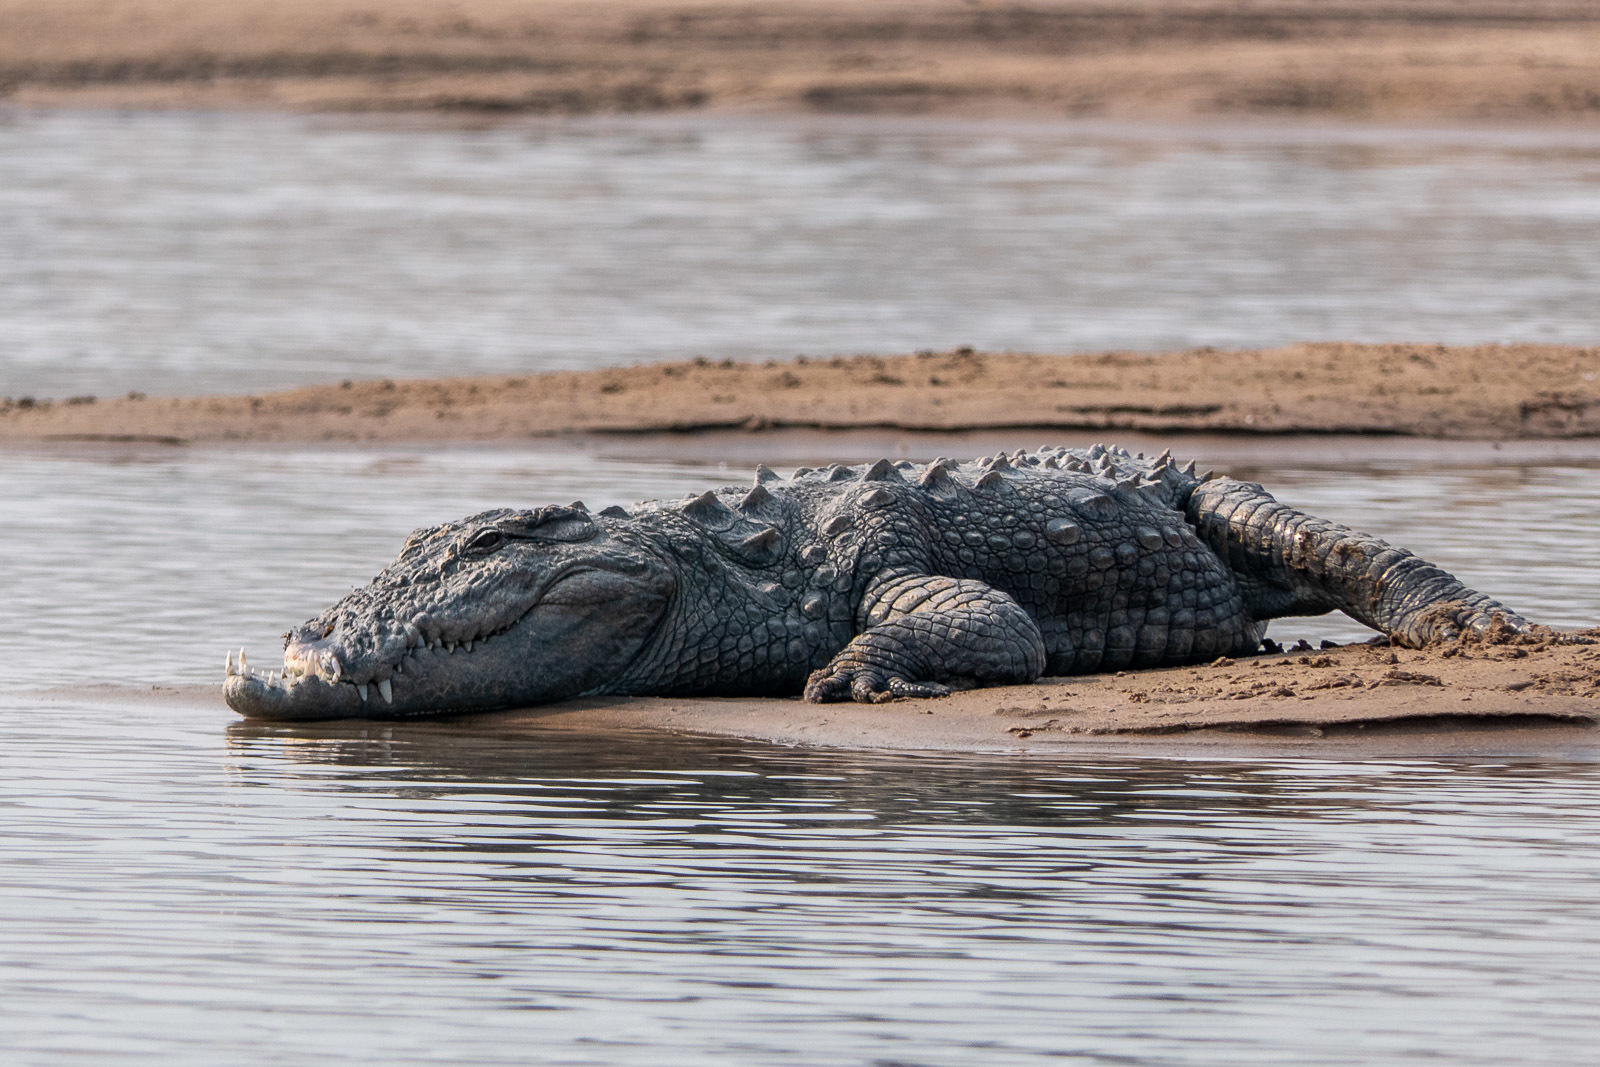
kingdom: Animalia
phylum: Chordata
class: Crocodylia
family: Crocodylidae
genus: Crocodylus
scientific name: Crocodylus palustris
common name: Mugger crocodile
